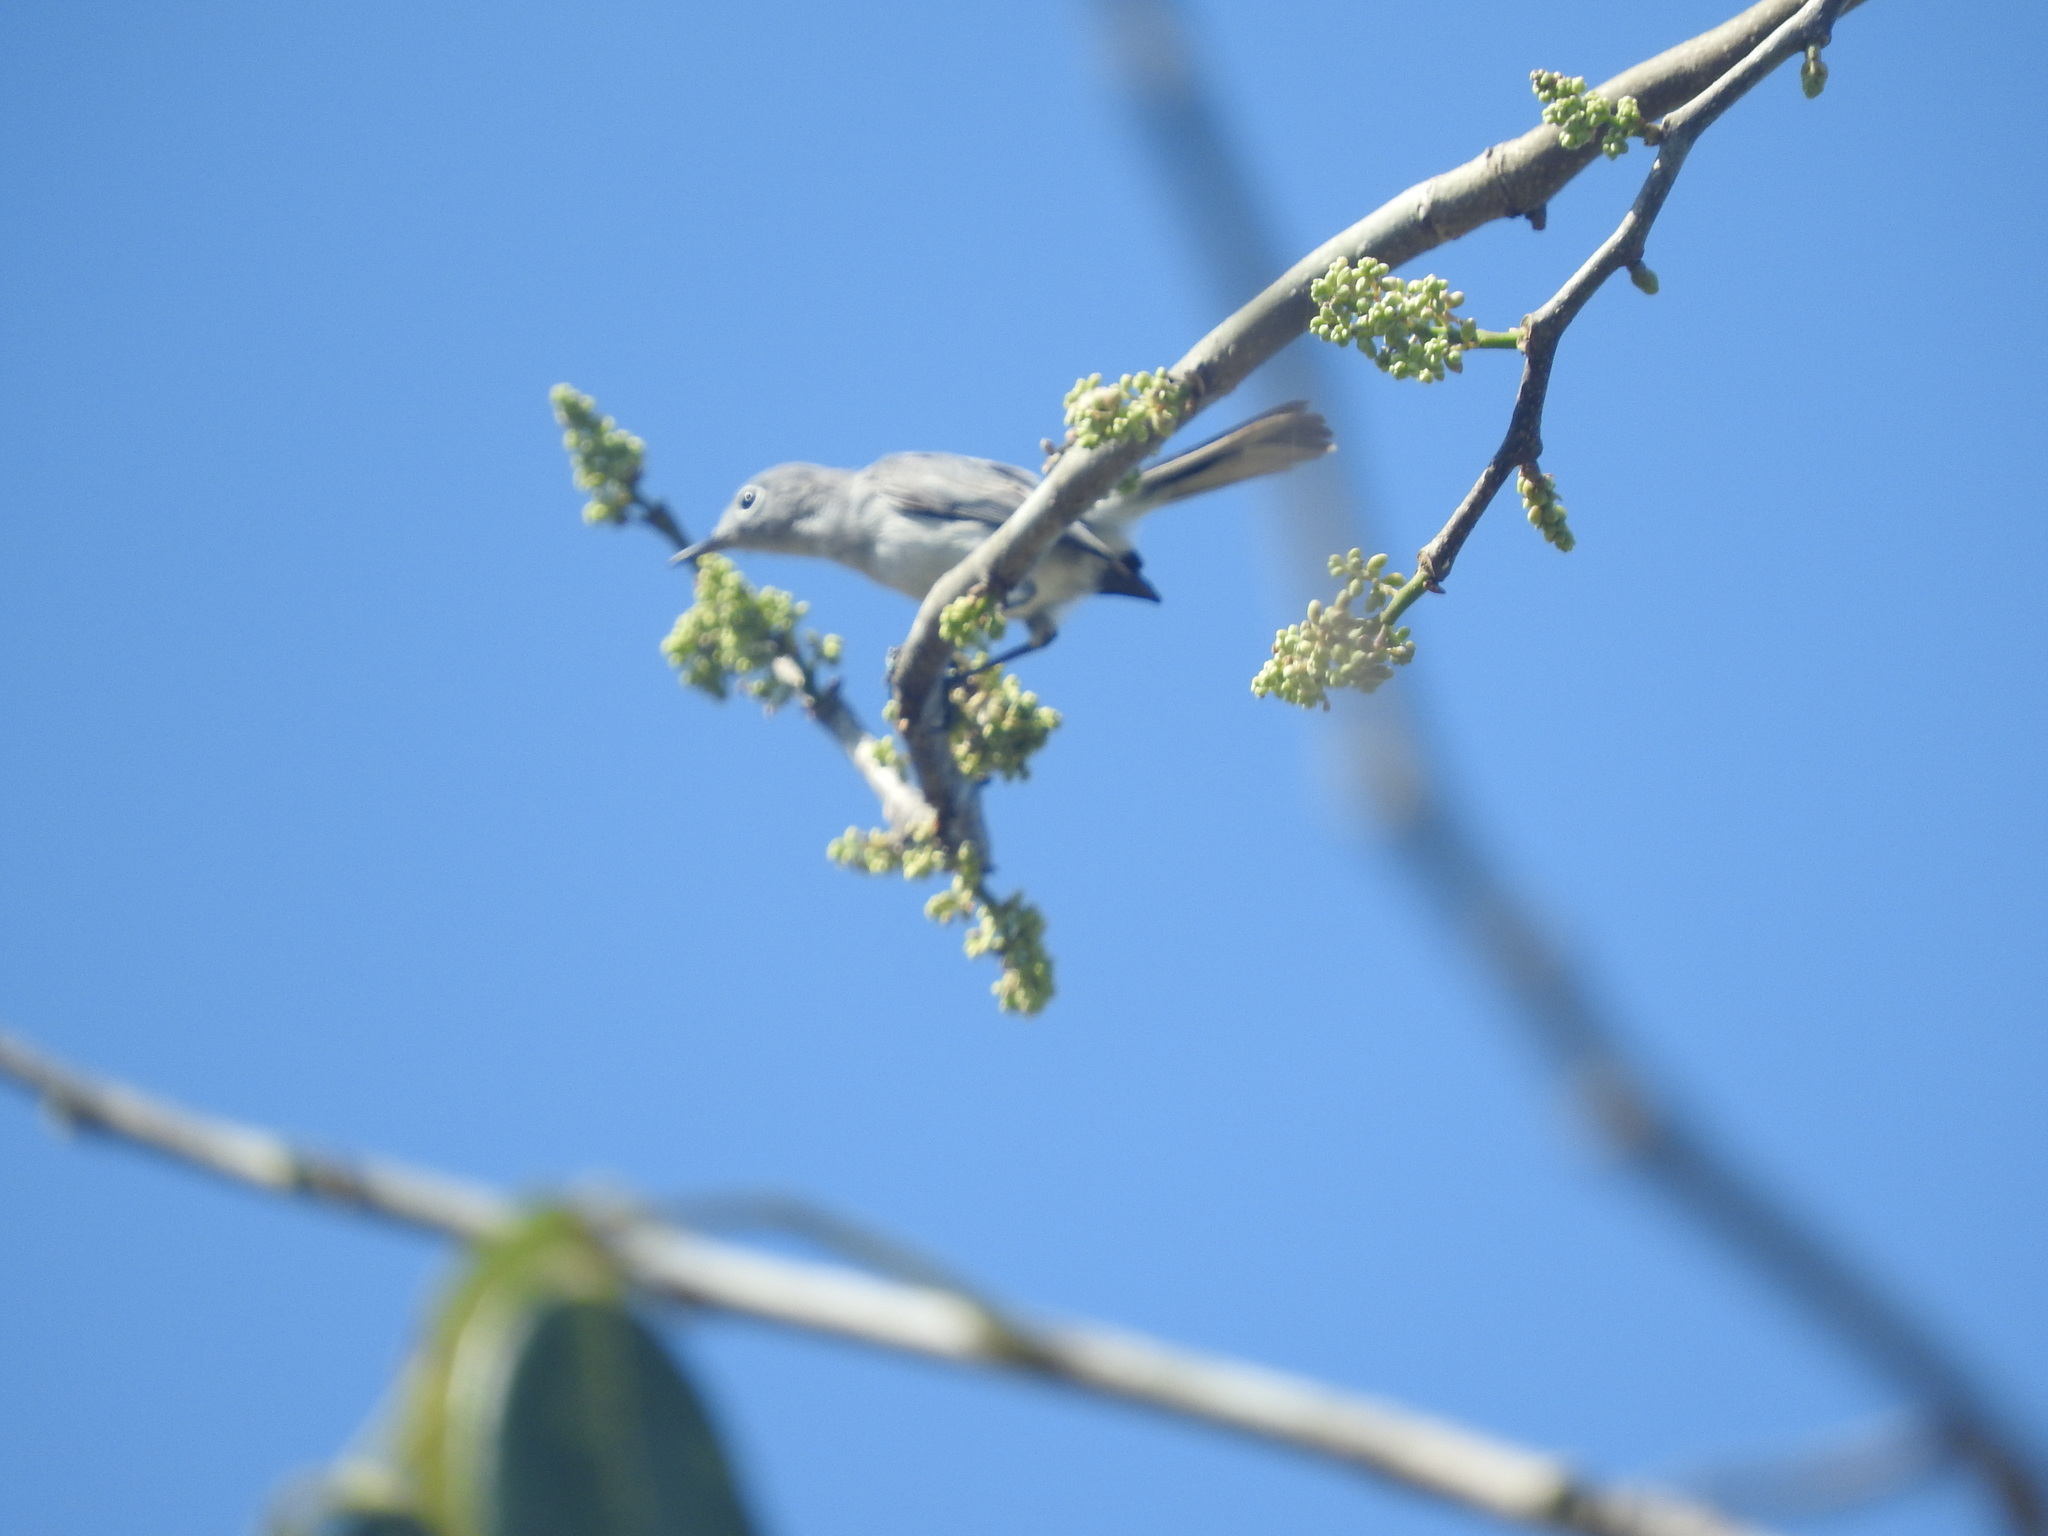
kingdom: Animalia
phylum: Chordata
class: Aves
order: Passeriformes
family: Polioptilidae
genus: Polioptila
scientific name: Polioptila caerulea
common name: Blue-gray gnatcatcher
